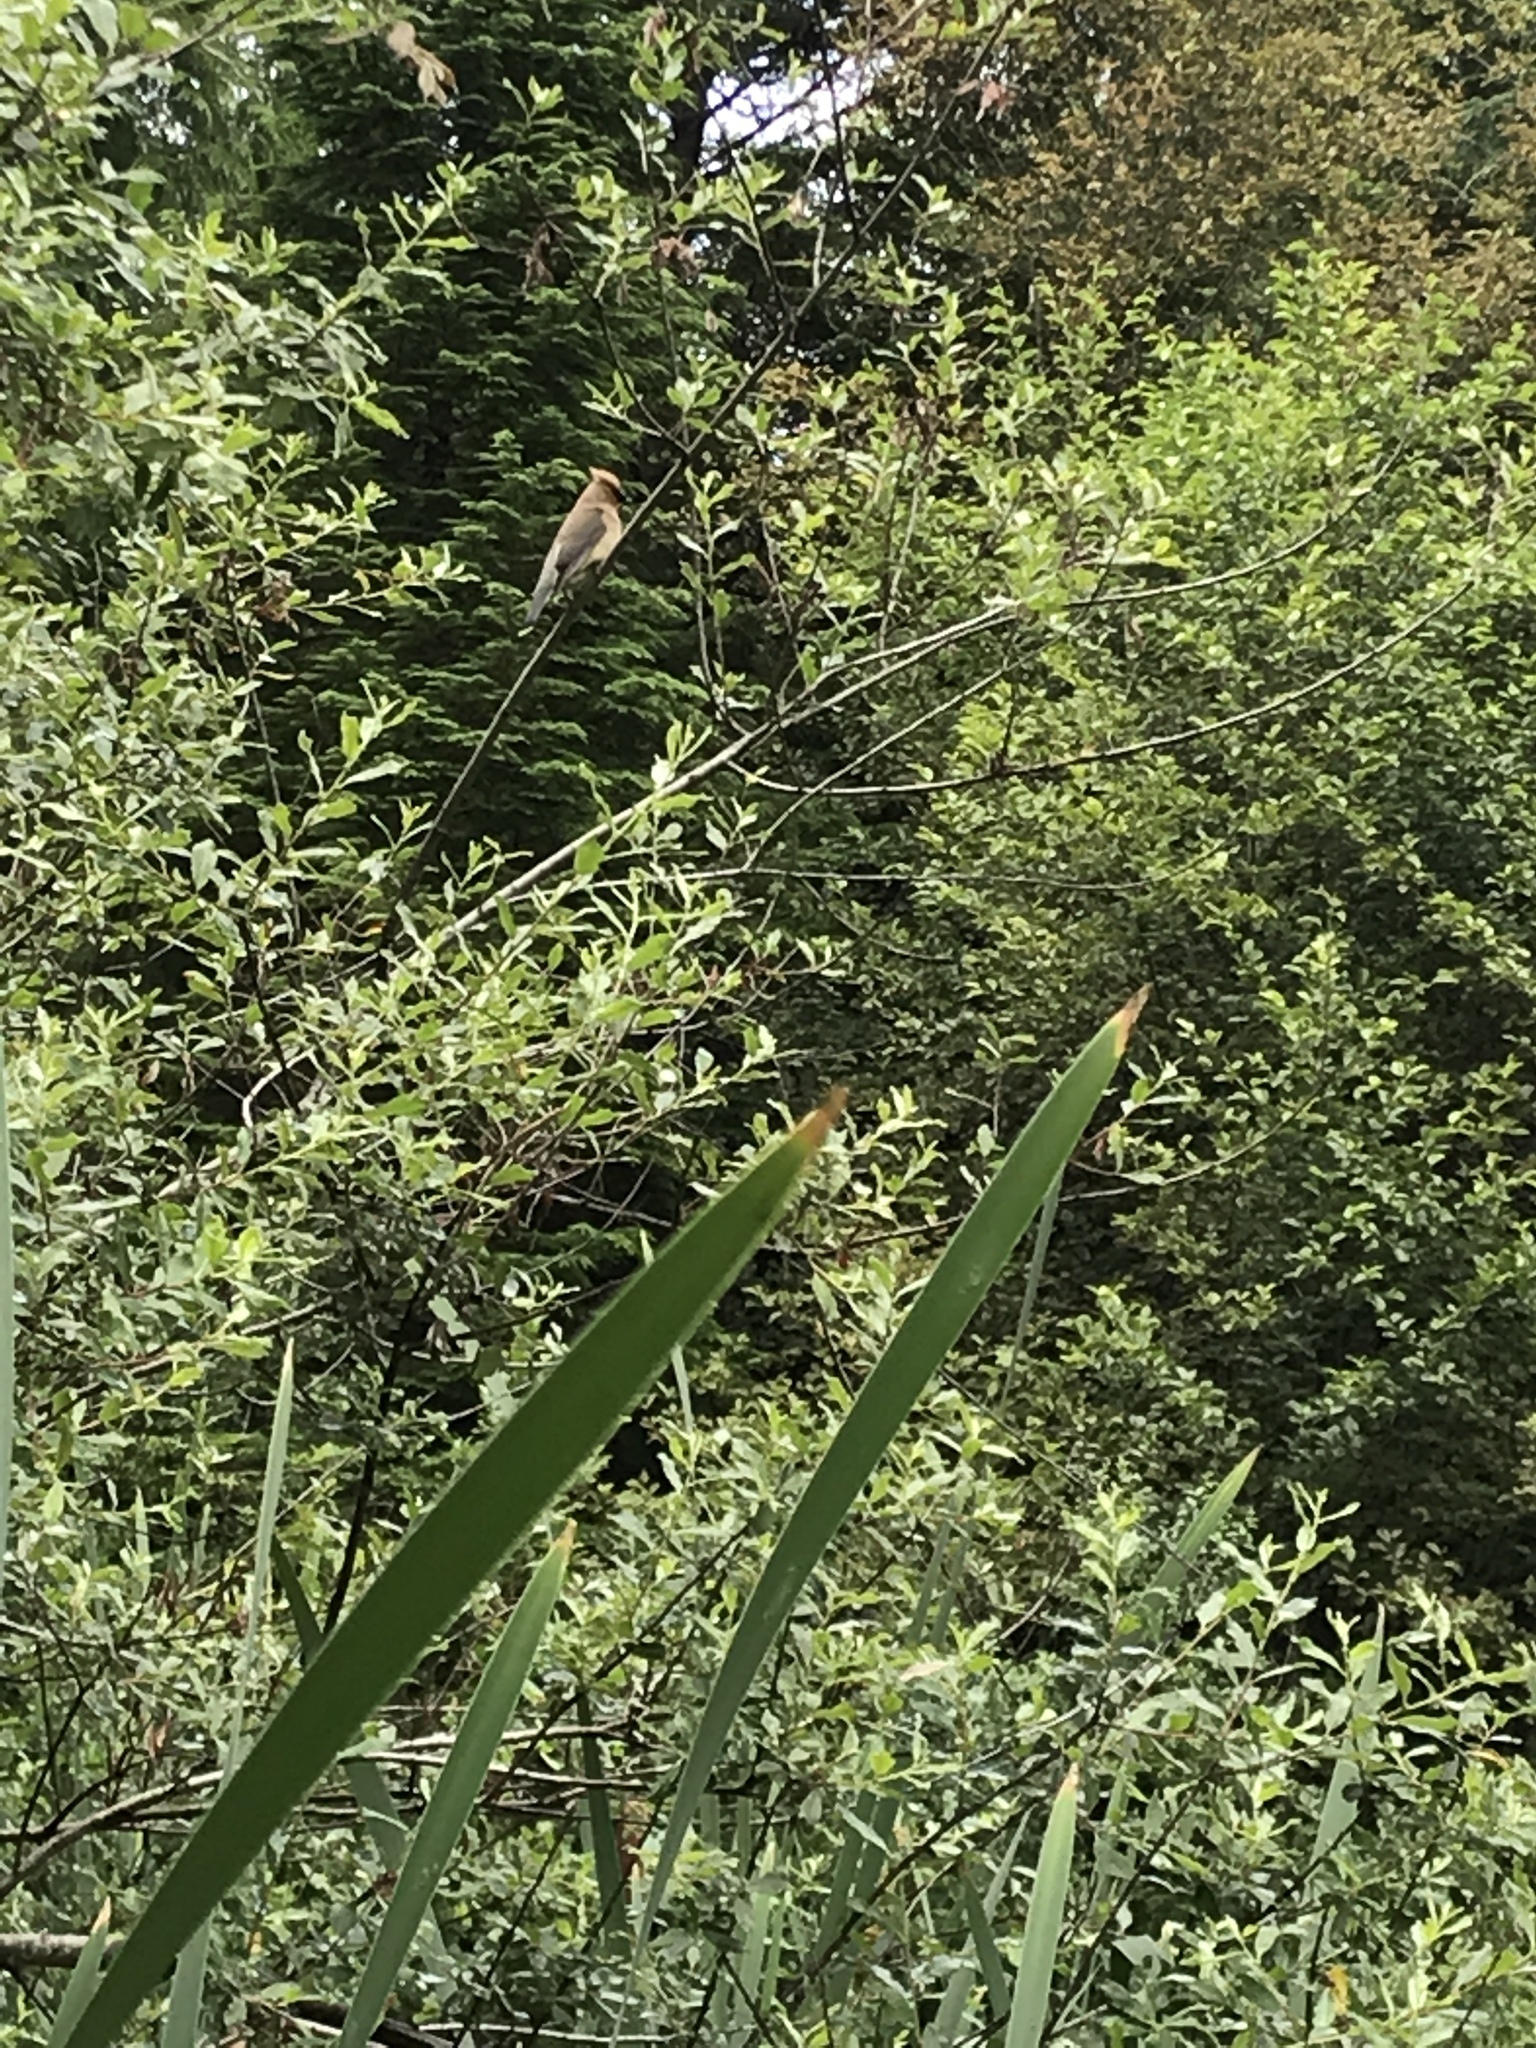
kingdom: Animalia
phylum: Chordata
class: Aves
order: Passeriformes
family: Bombycillidae
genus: Bombycilla
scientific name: Bombycilla cedrorum
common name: Cedar waxwing
